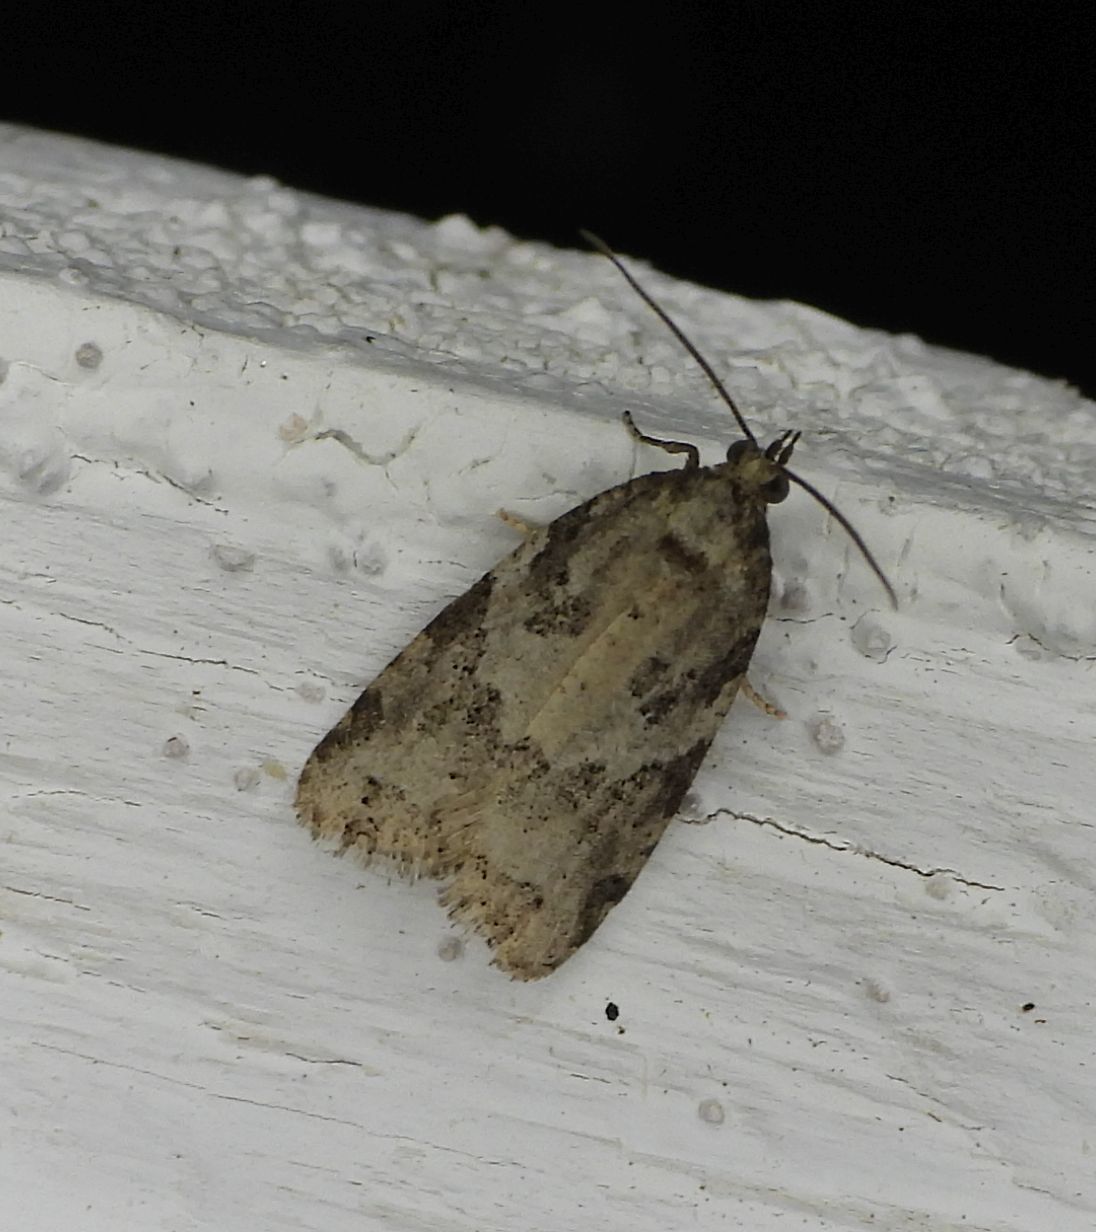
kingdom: Animalia
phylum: Arthropoda
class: Insecta
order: Lepidoptera
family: Tortricidae
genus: Cnephasia
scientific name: Cnephasia stephensiana
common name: Grey tortrix
